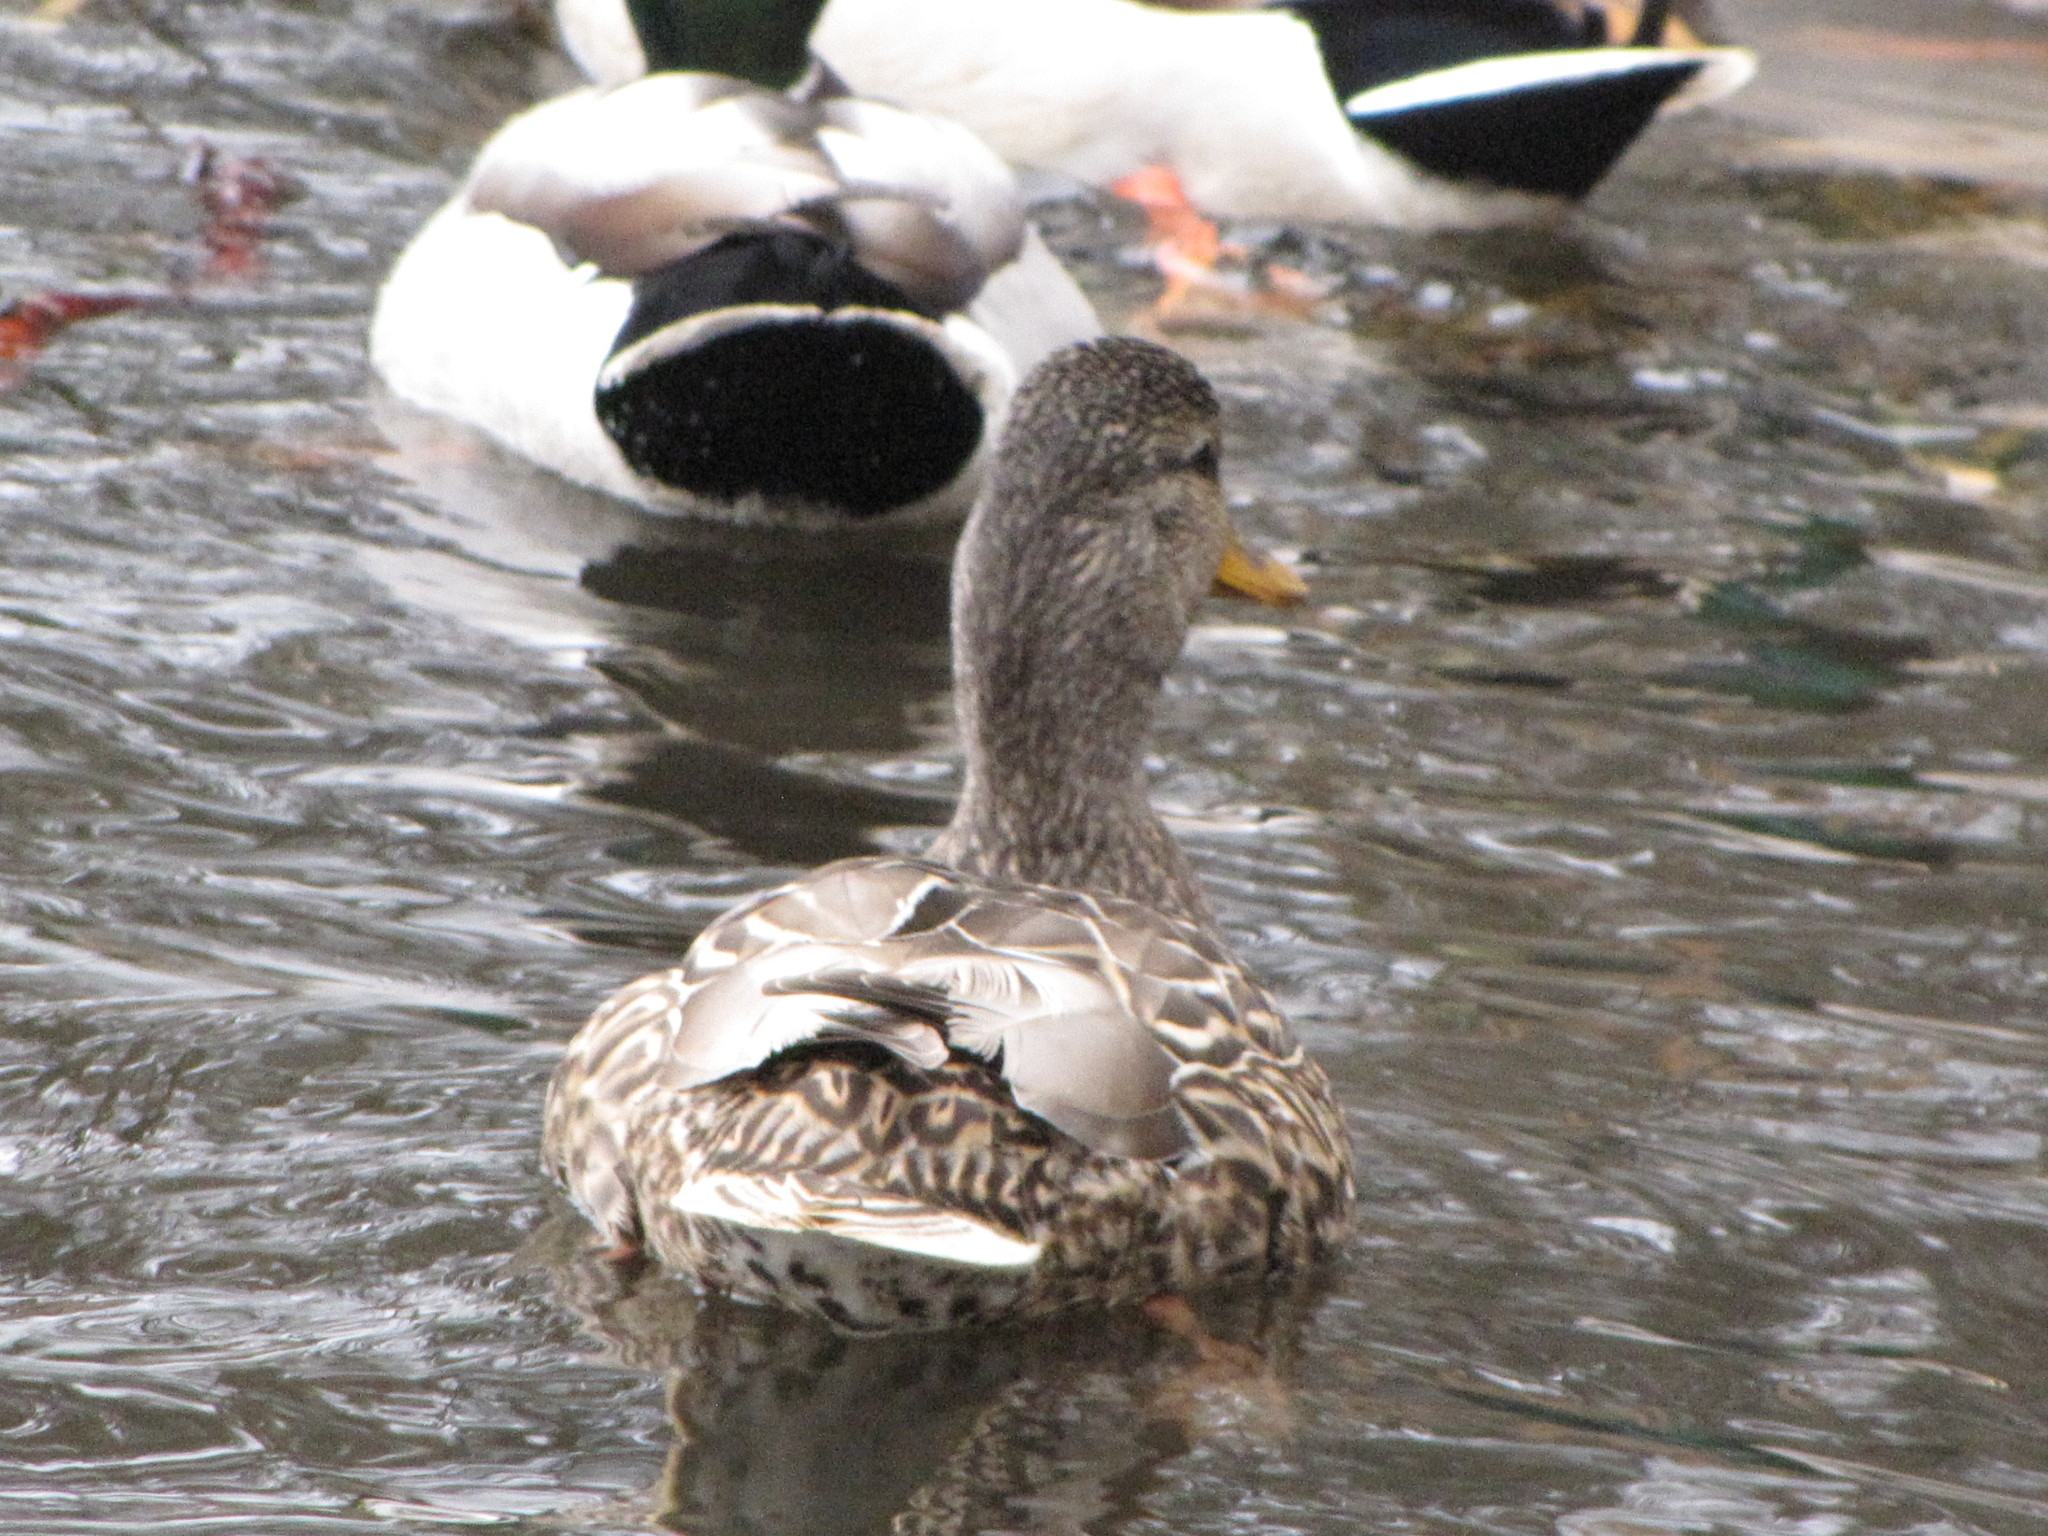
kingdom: Animalia
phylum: Chordata
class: Aves
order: Anseriformes
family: Anatidae
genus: Anas
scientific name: Anas platyrhynchos
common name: Mallard
